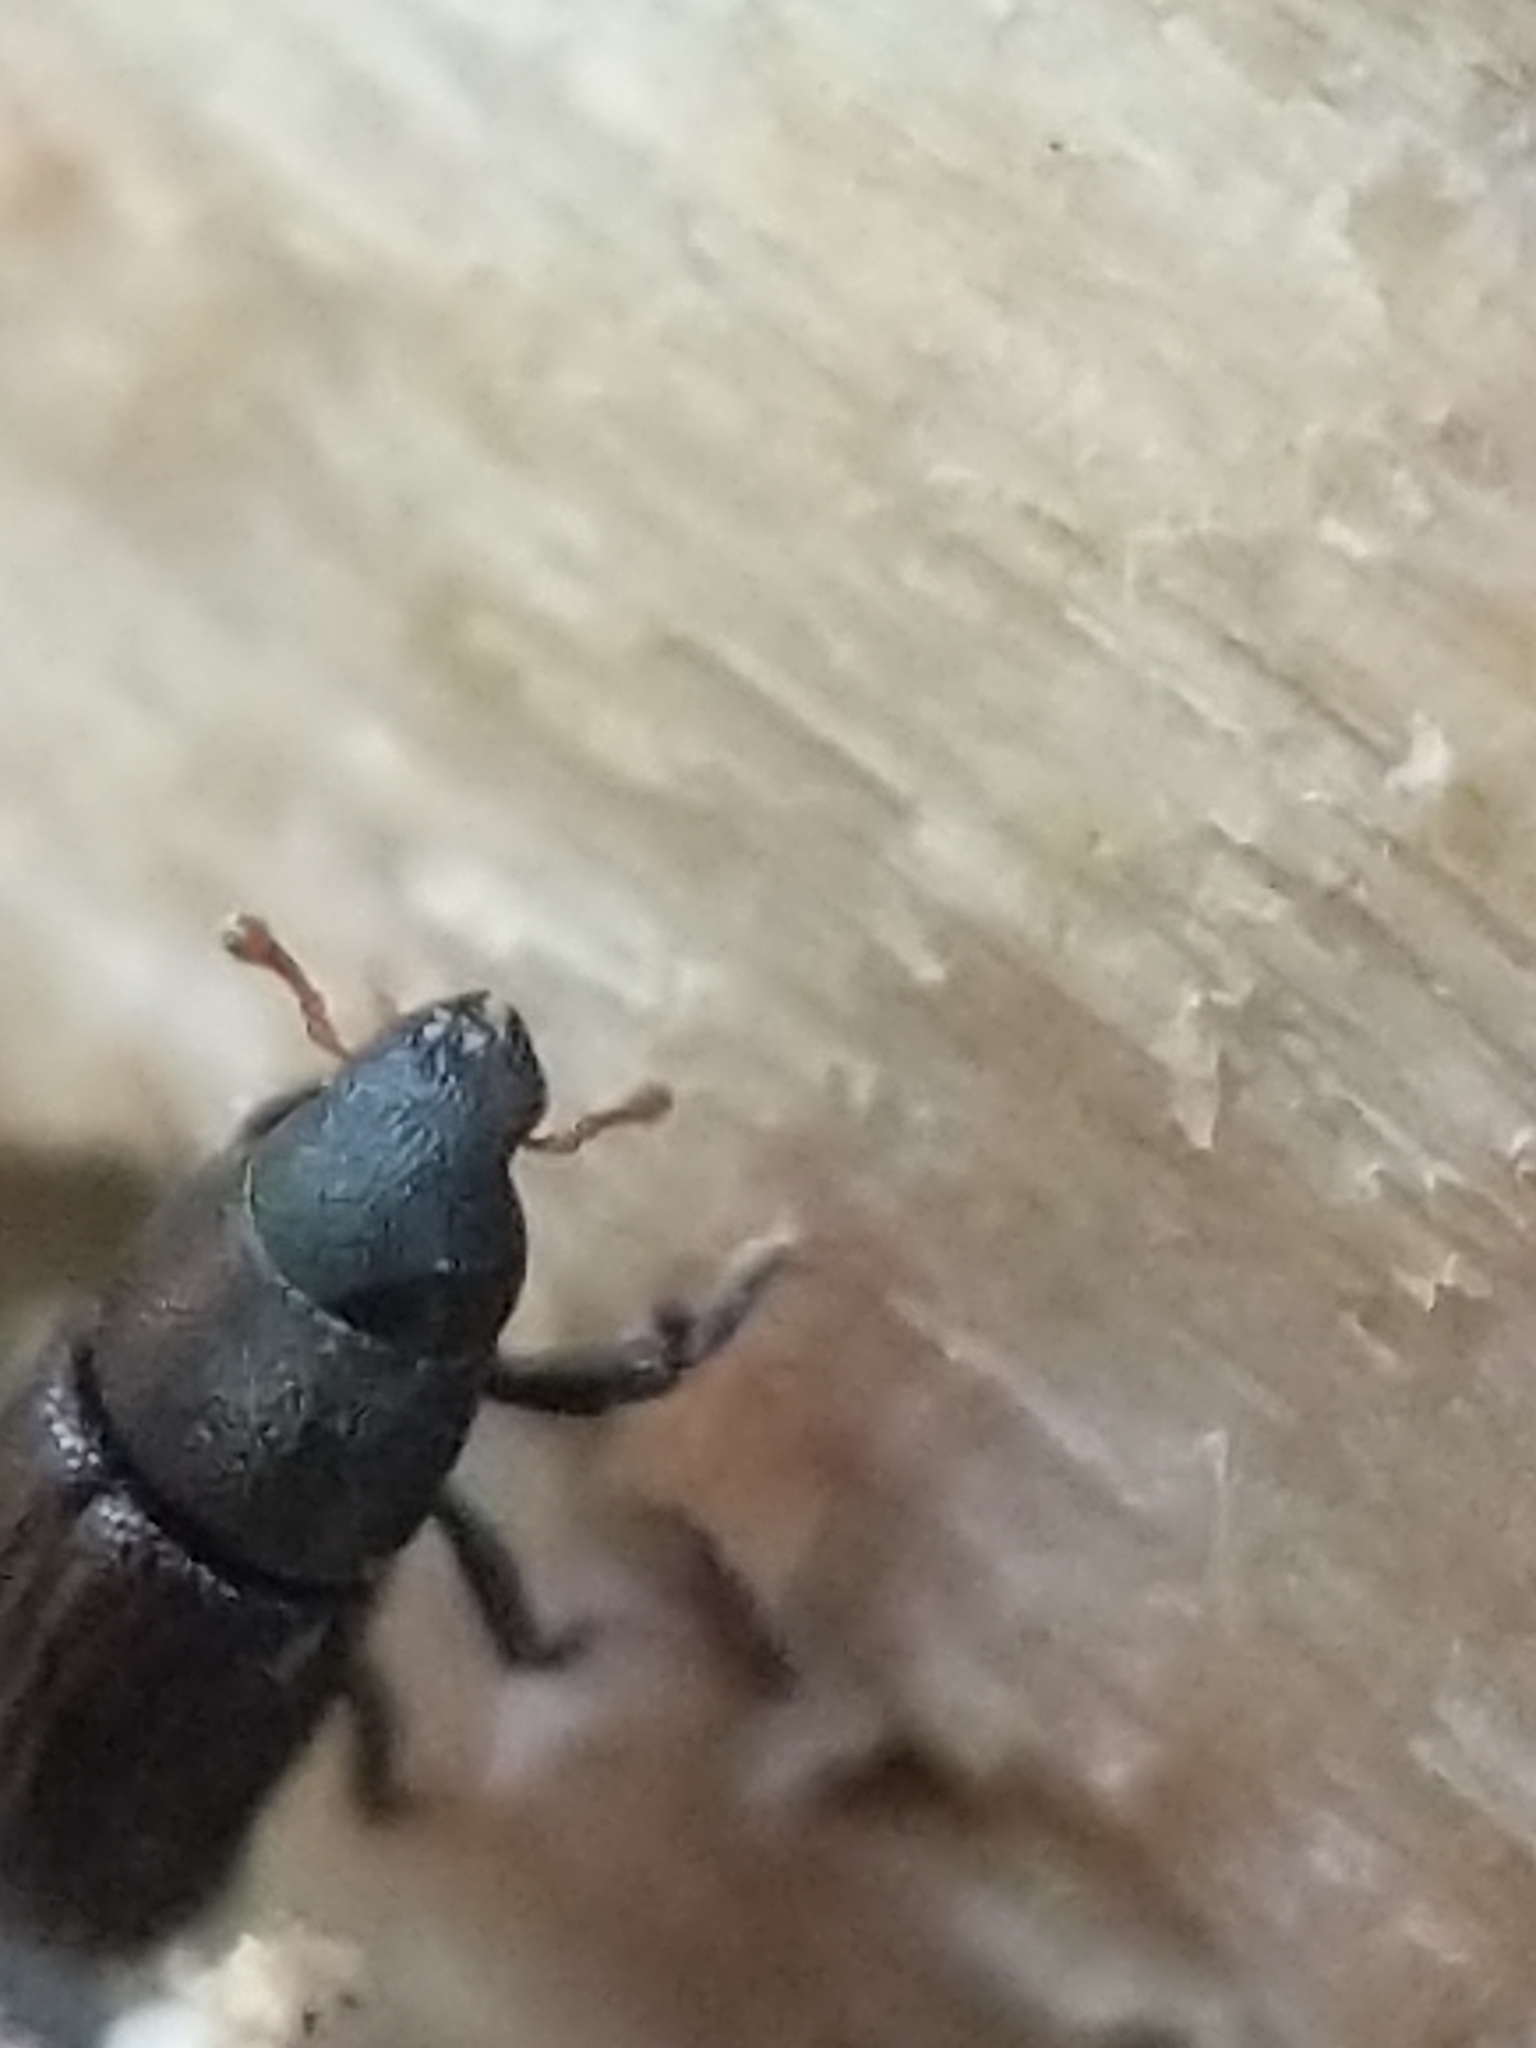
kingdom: Animalia
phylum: Arthropoda
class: Insecta
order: Coleoptera
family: Curculionidae
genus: Stenoscelis
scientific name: Stenoscelis brevis
